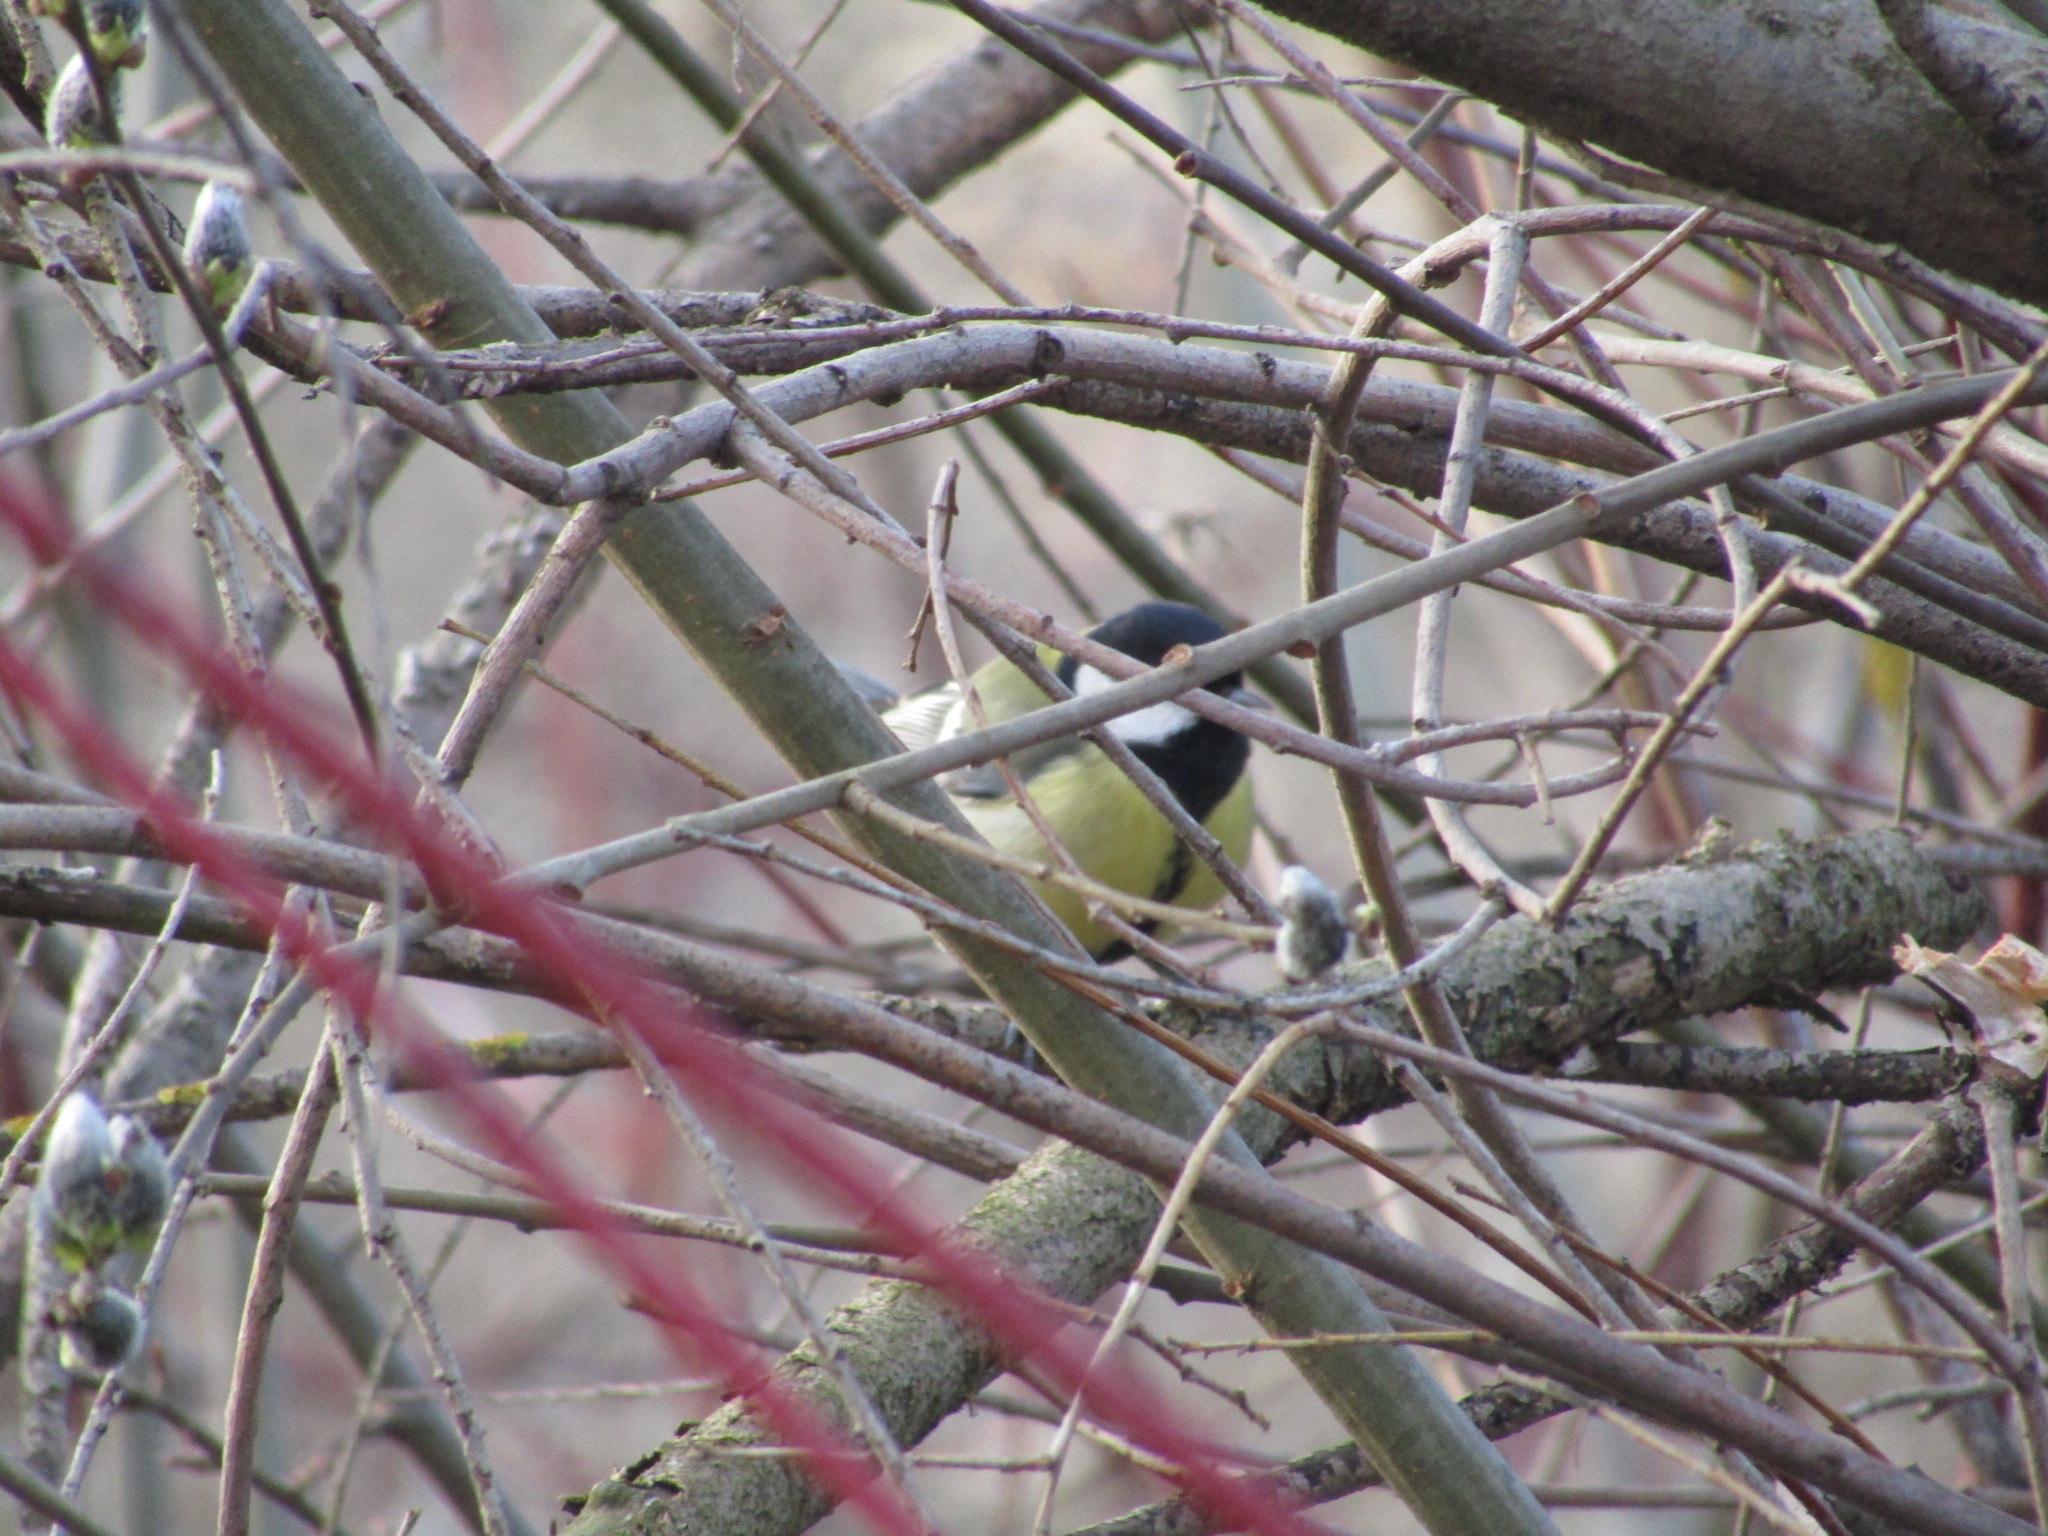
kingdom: Animalia
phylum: Chordata
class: Aves
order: Passeriformes
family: Paridae
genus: Parus
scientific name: Parus major
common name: Great tit
